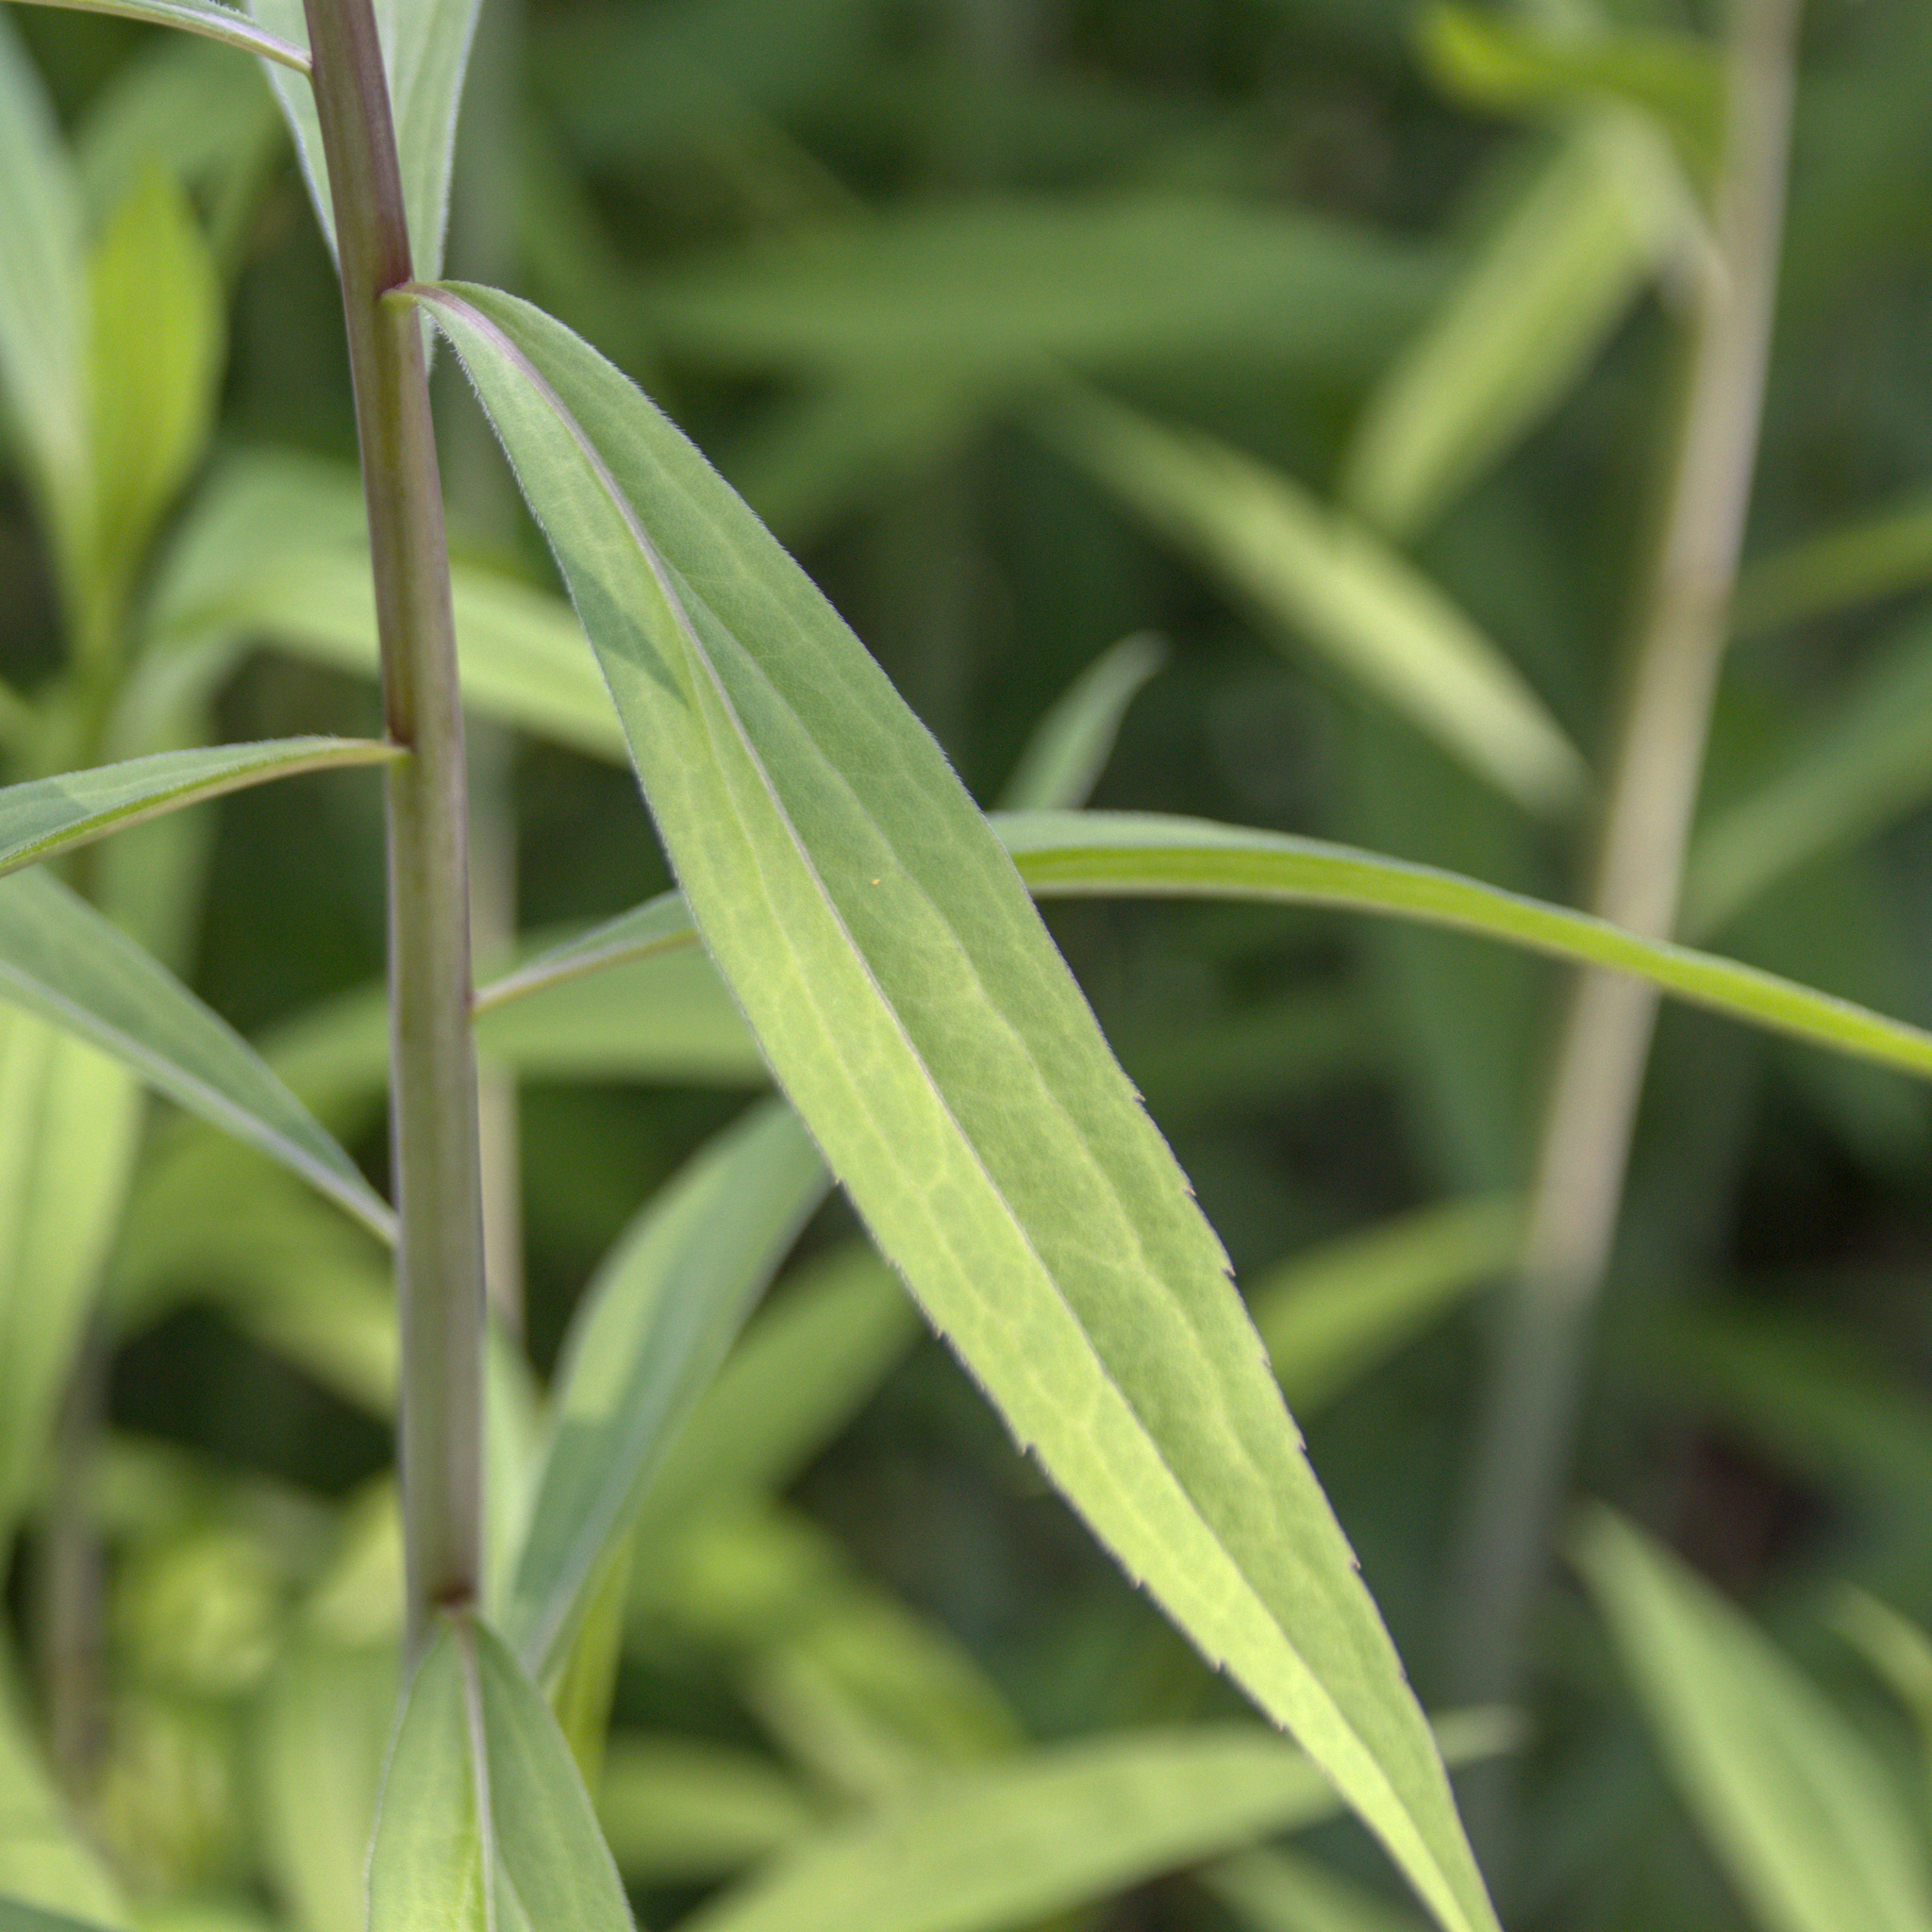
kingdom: Plantae
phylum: Tracheophyta
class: Magnoliopsida
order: Asterales
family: Asteraceae
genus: Solidago
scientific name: Solidago gigantea
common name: Giant goldenrod
